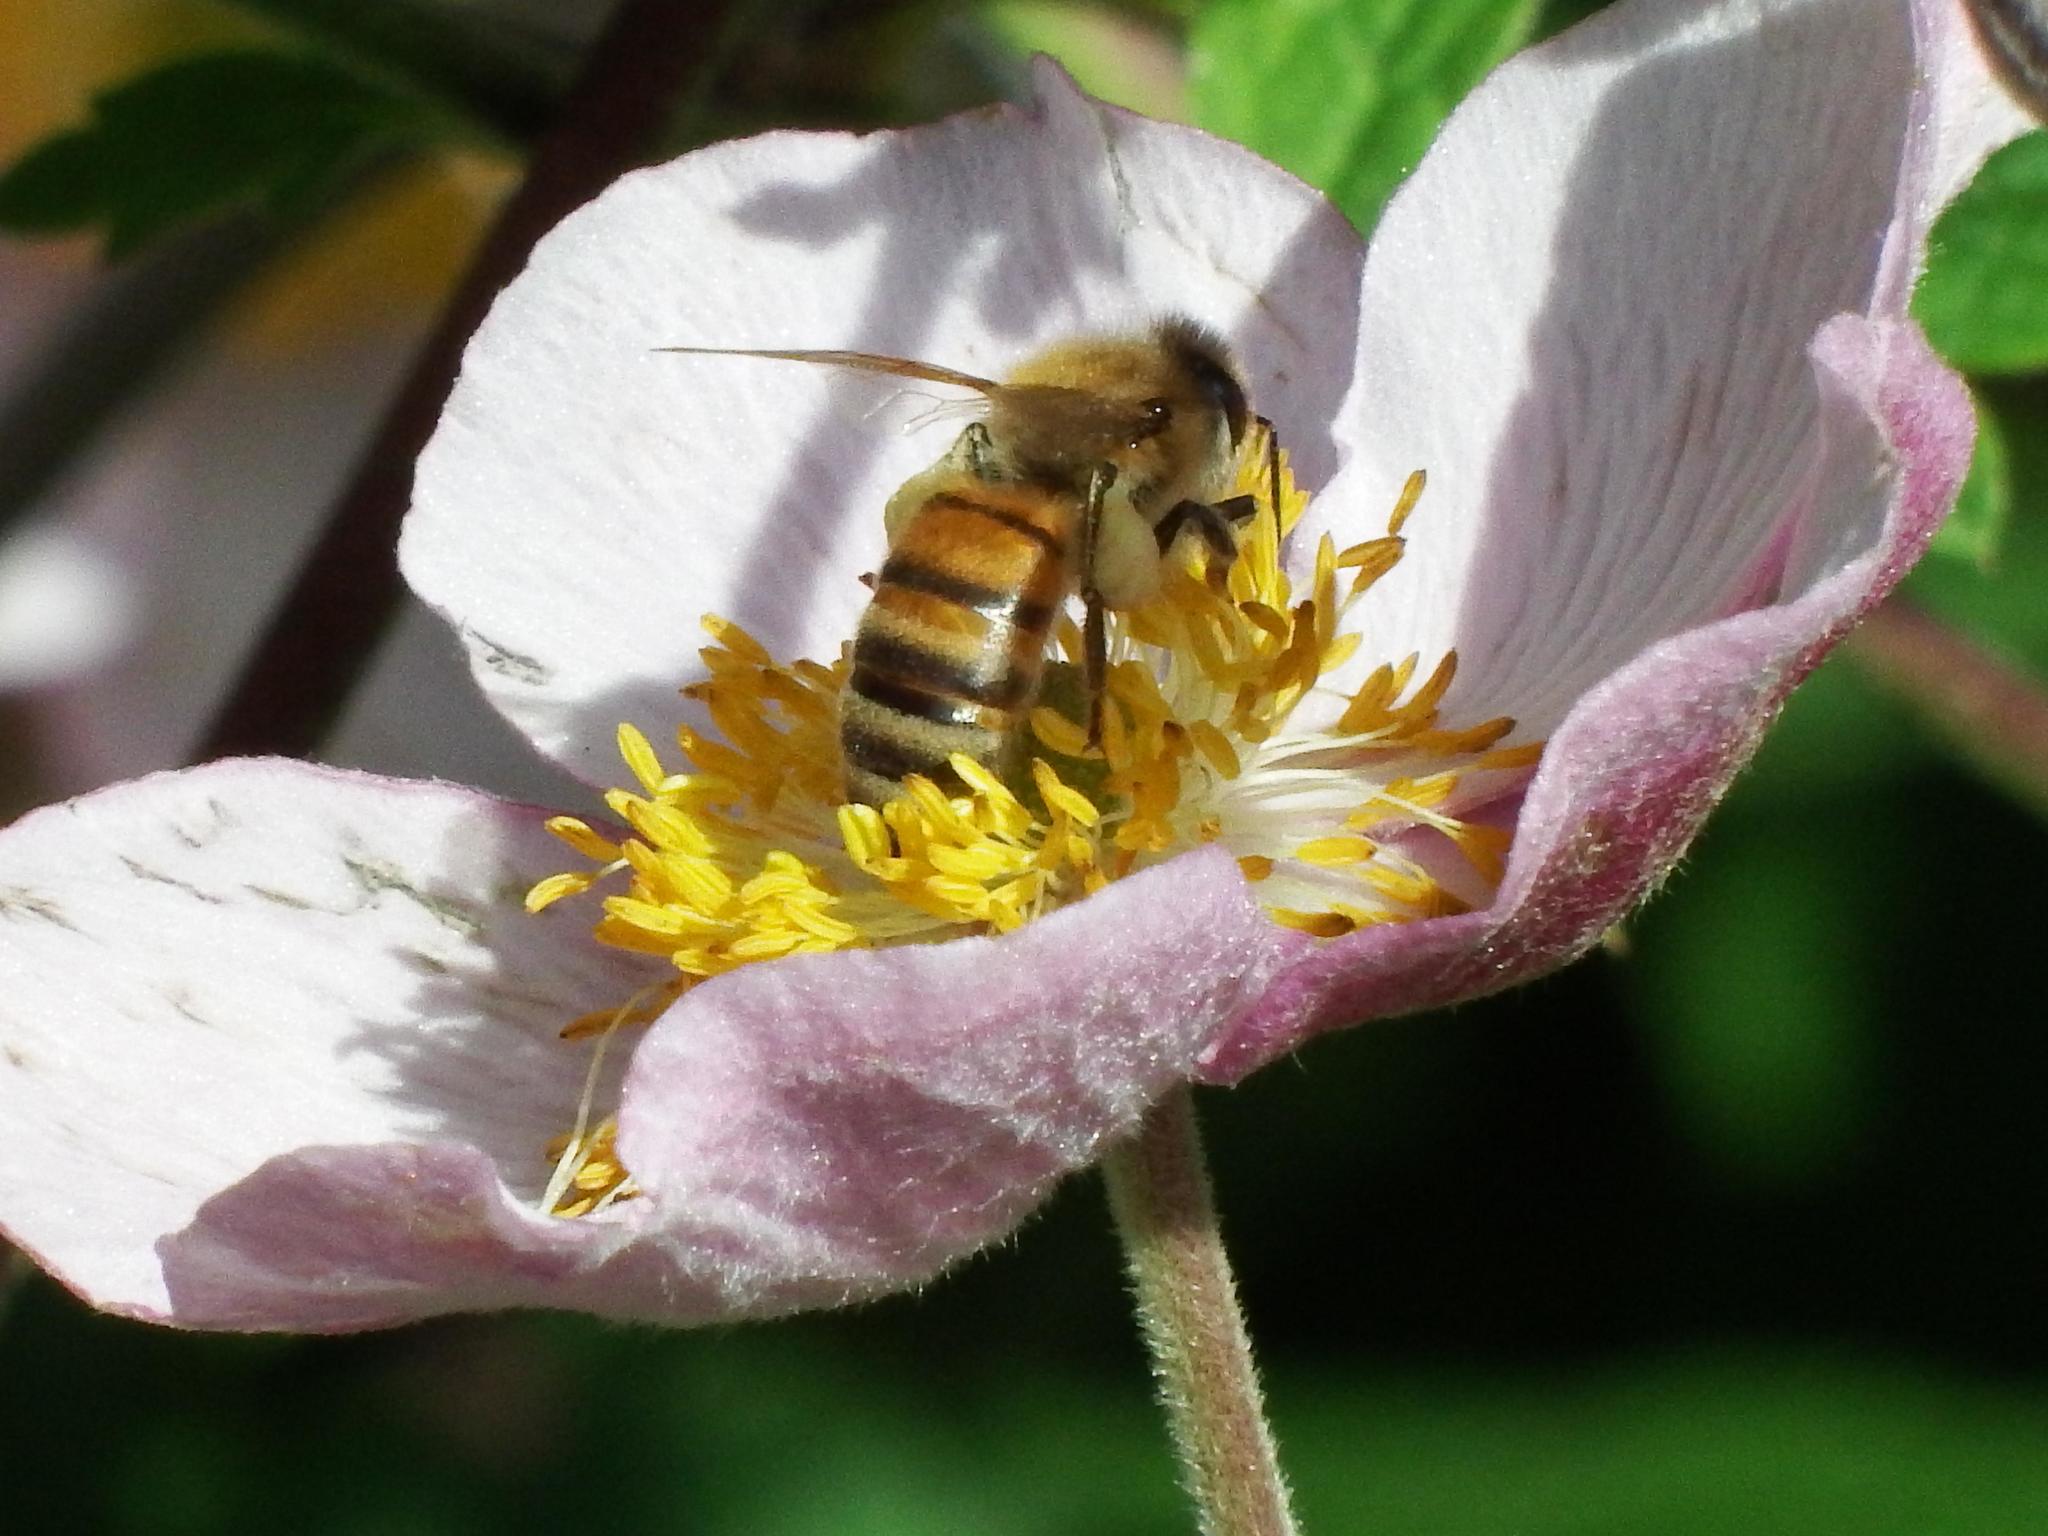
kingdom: Animalia
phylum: Arthropoda
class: Insecta
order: Hymenoptera
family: Apidae
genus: Apis
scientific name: Apis mellifera
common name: Honey bee
